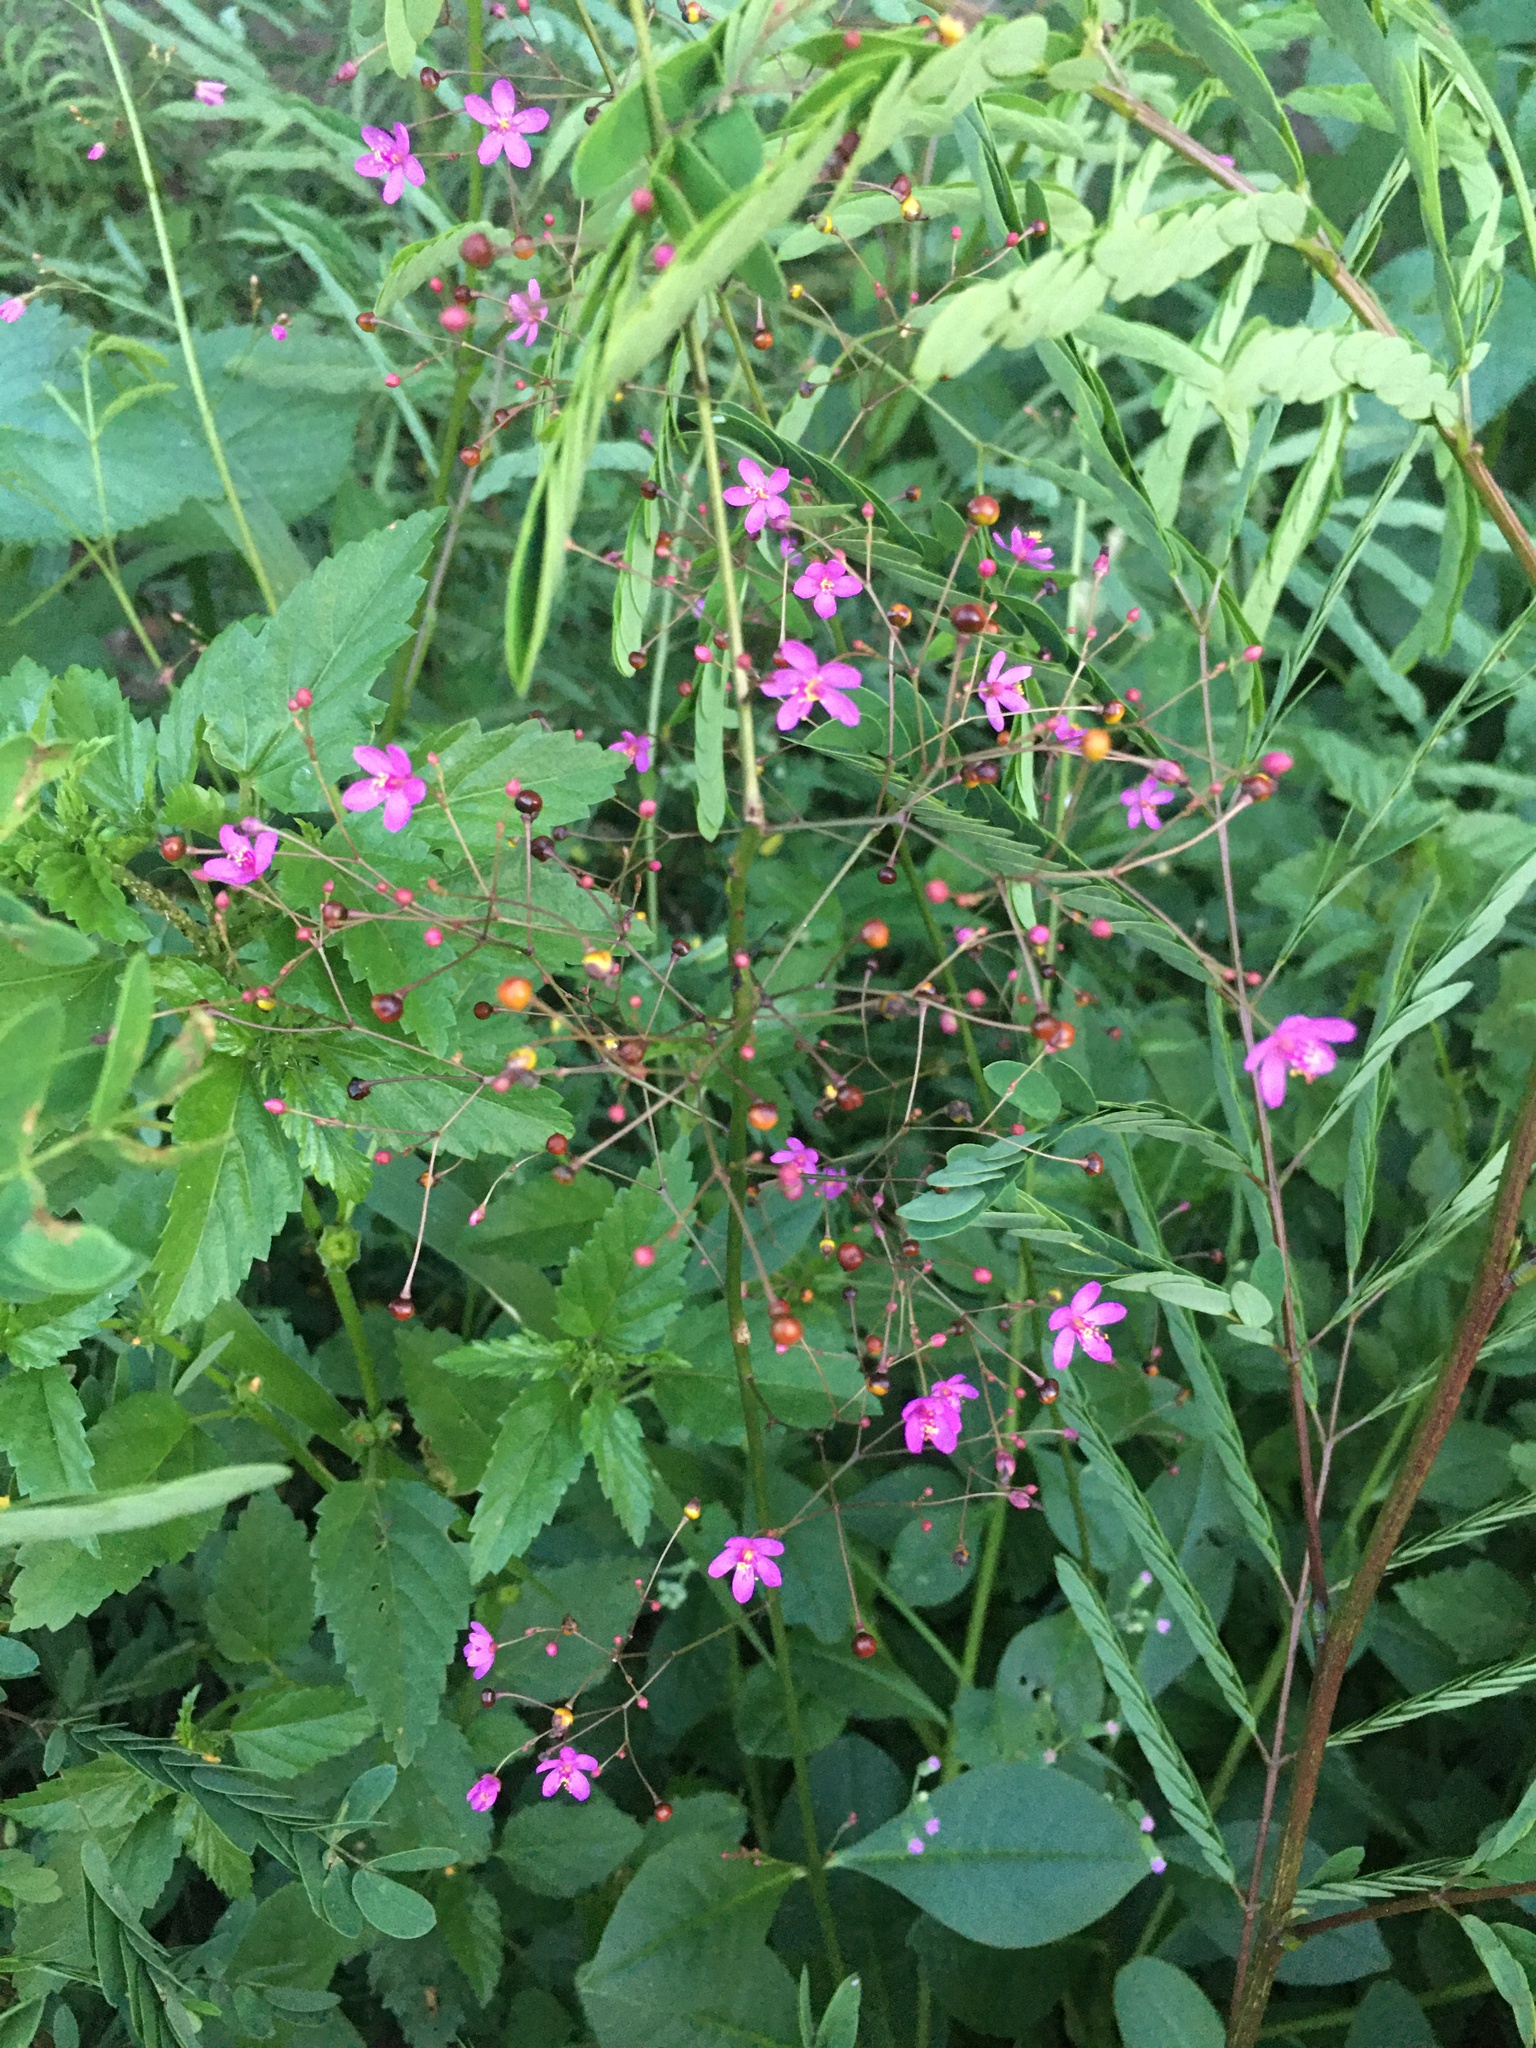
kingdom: Plantae
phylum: Tracheophyta
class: Magnoliopsida
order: Caryophyllales
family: Talinaceae
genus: Talinum
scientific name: Talinum paniculatum
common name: Jewels of opar
